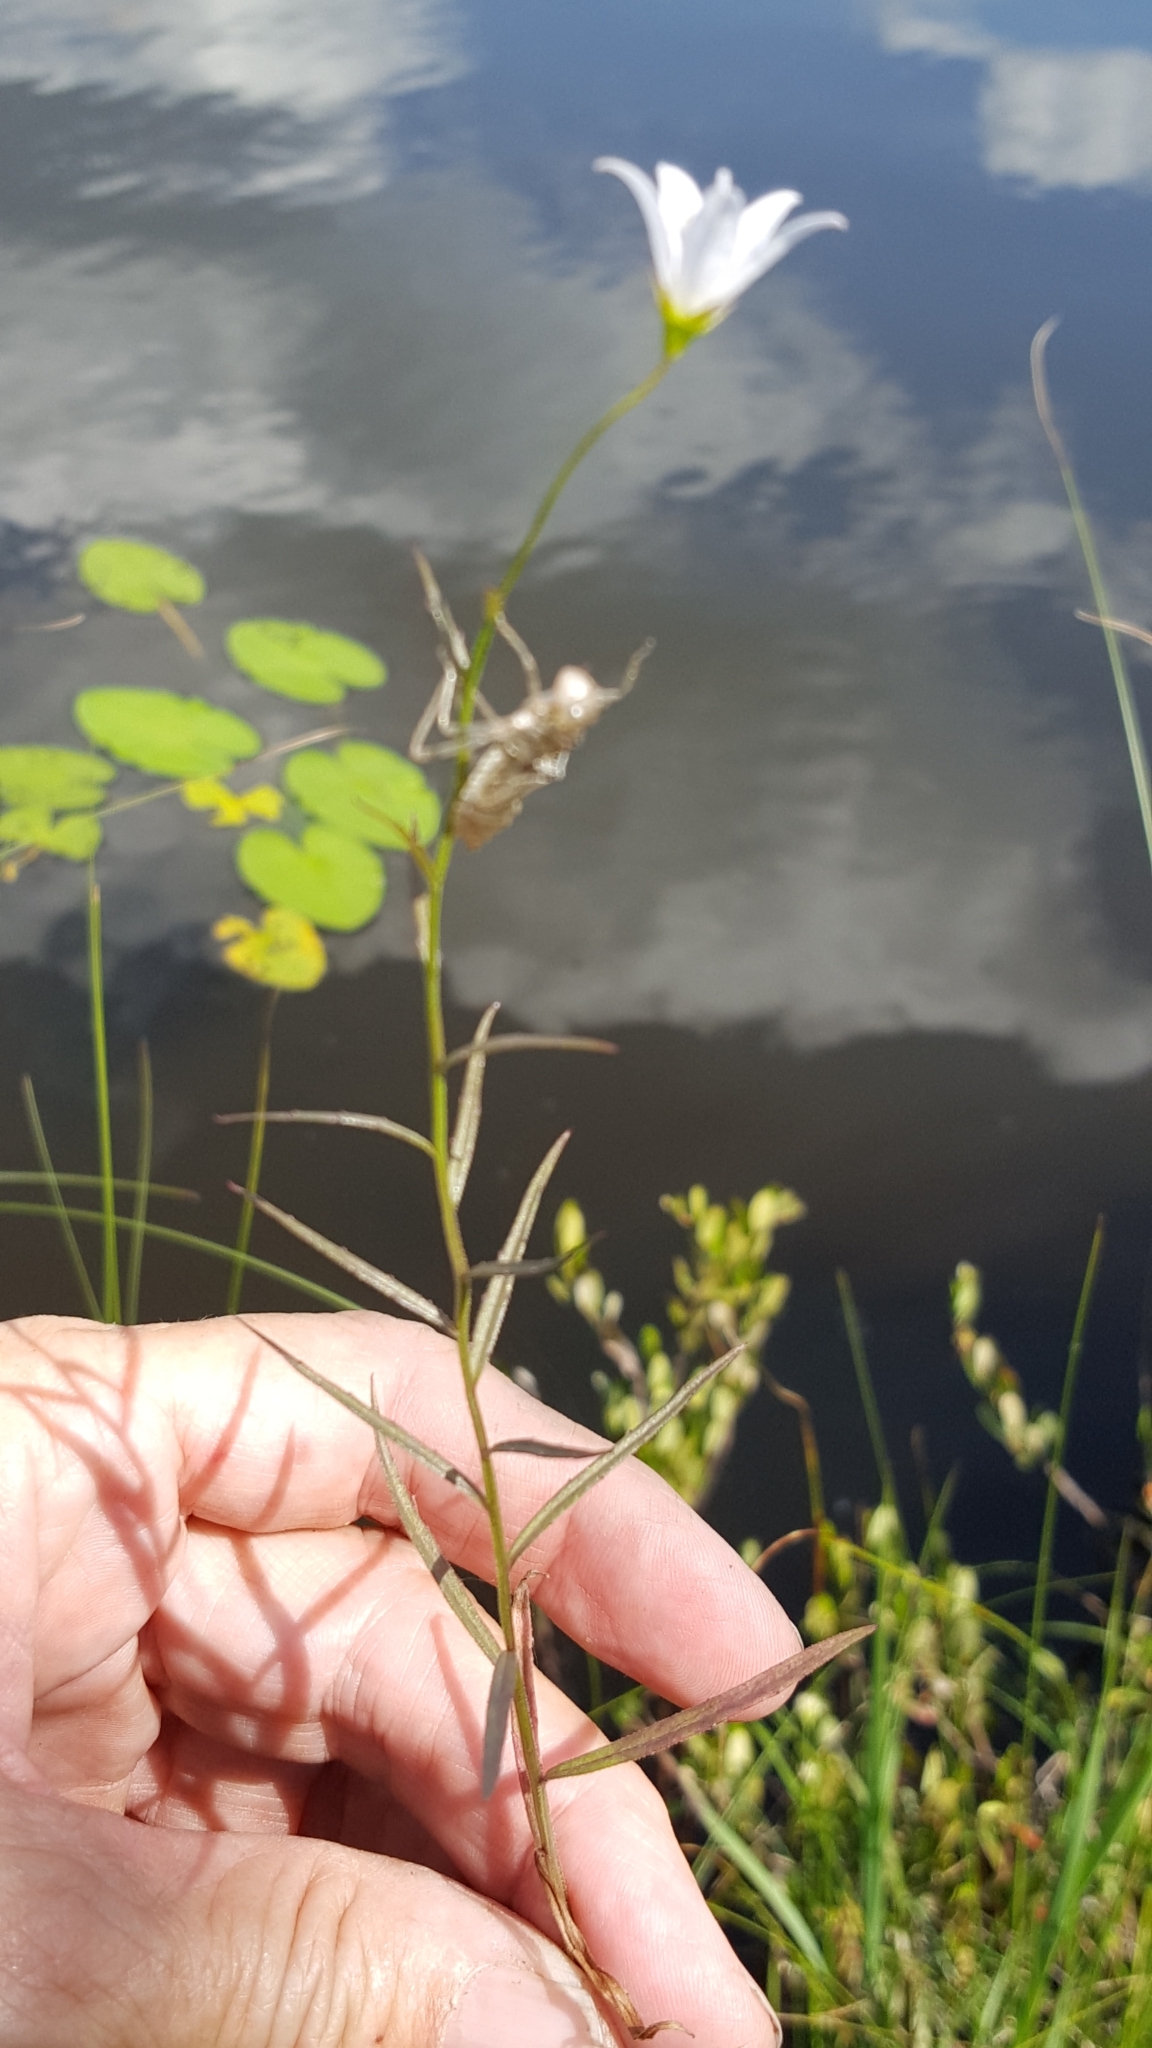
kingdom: Plantae
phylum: Tracheophyta
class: Magnoliopsida
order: Asterales
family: Campanulaceae
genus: Palustricodon
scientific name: Palustricodon aparinoides
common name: Bedstraw bellflower
